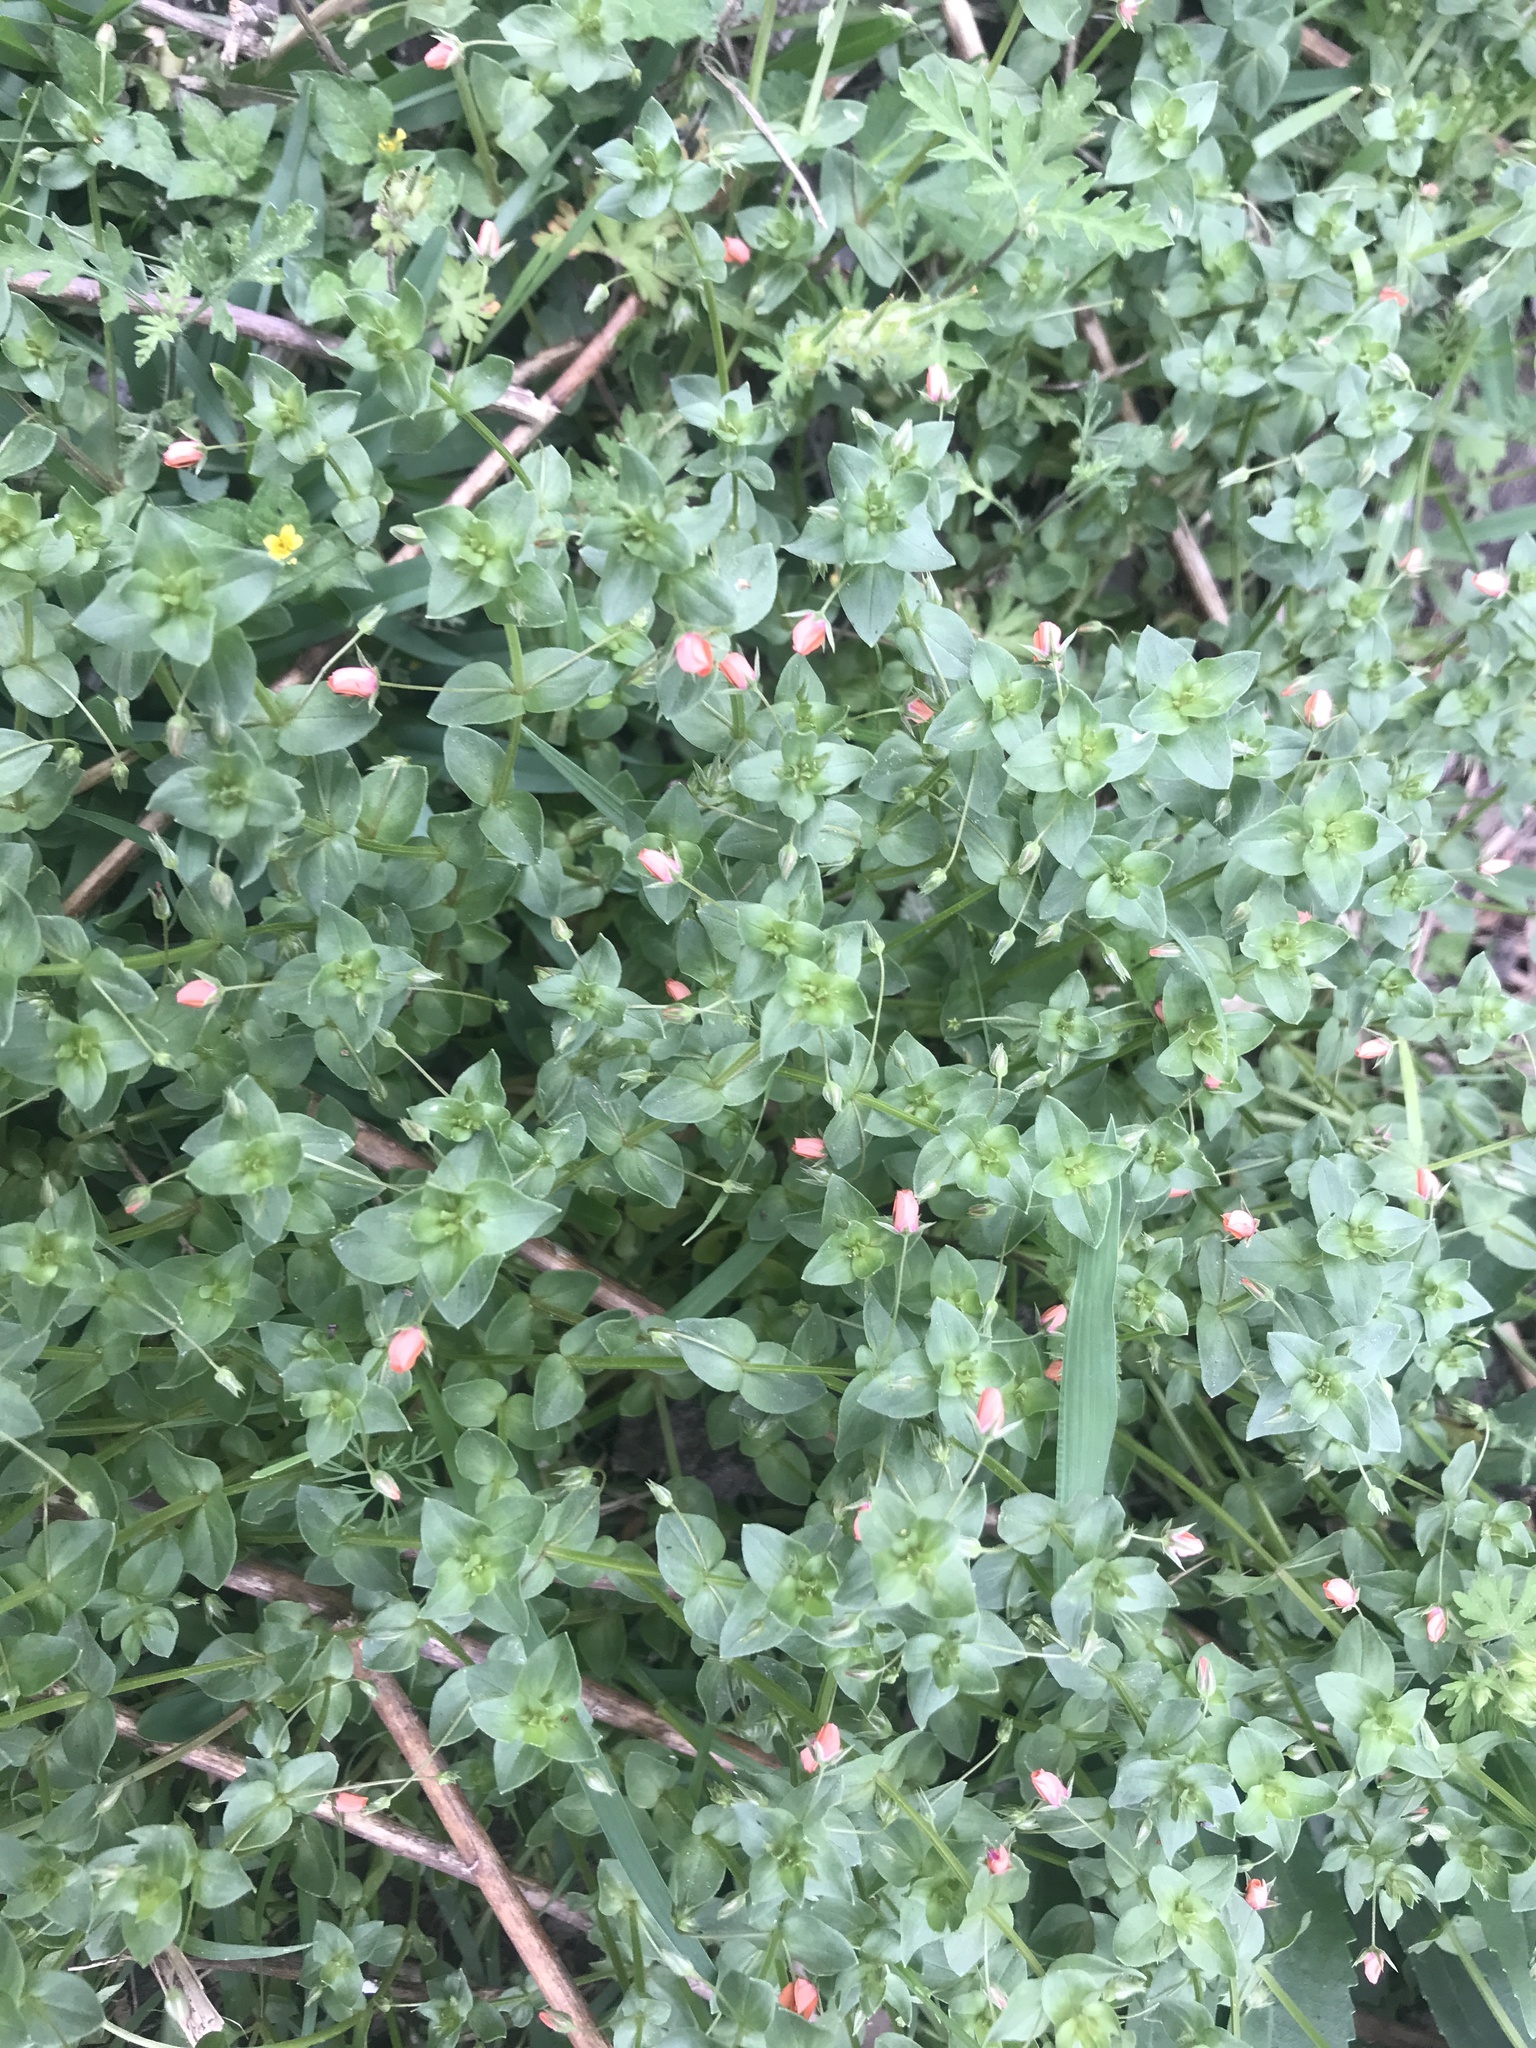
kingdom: Plantae
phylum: Tracheophyta
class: Magnoliopsida
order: Ericales
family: Primulaceae
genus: Lysimachia
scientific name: Lysimachia arvensis
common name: Scarlet pimpernel
